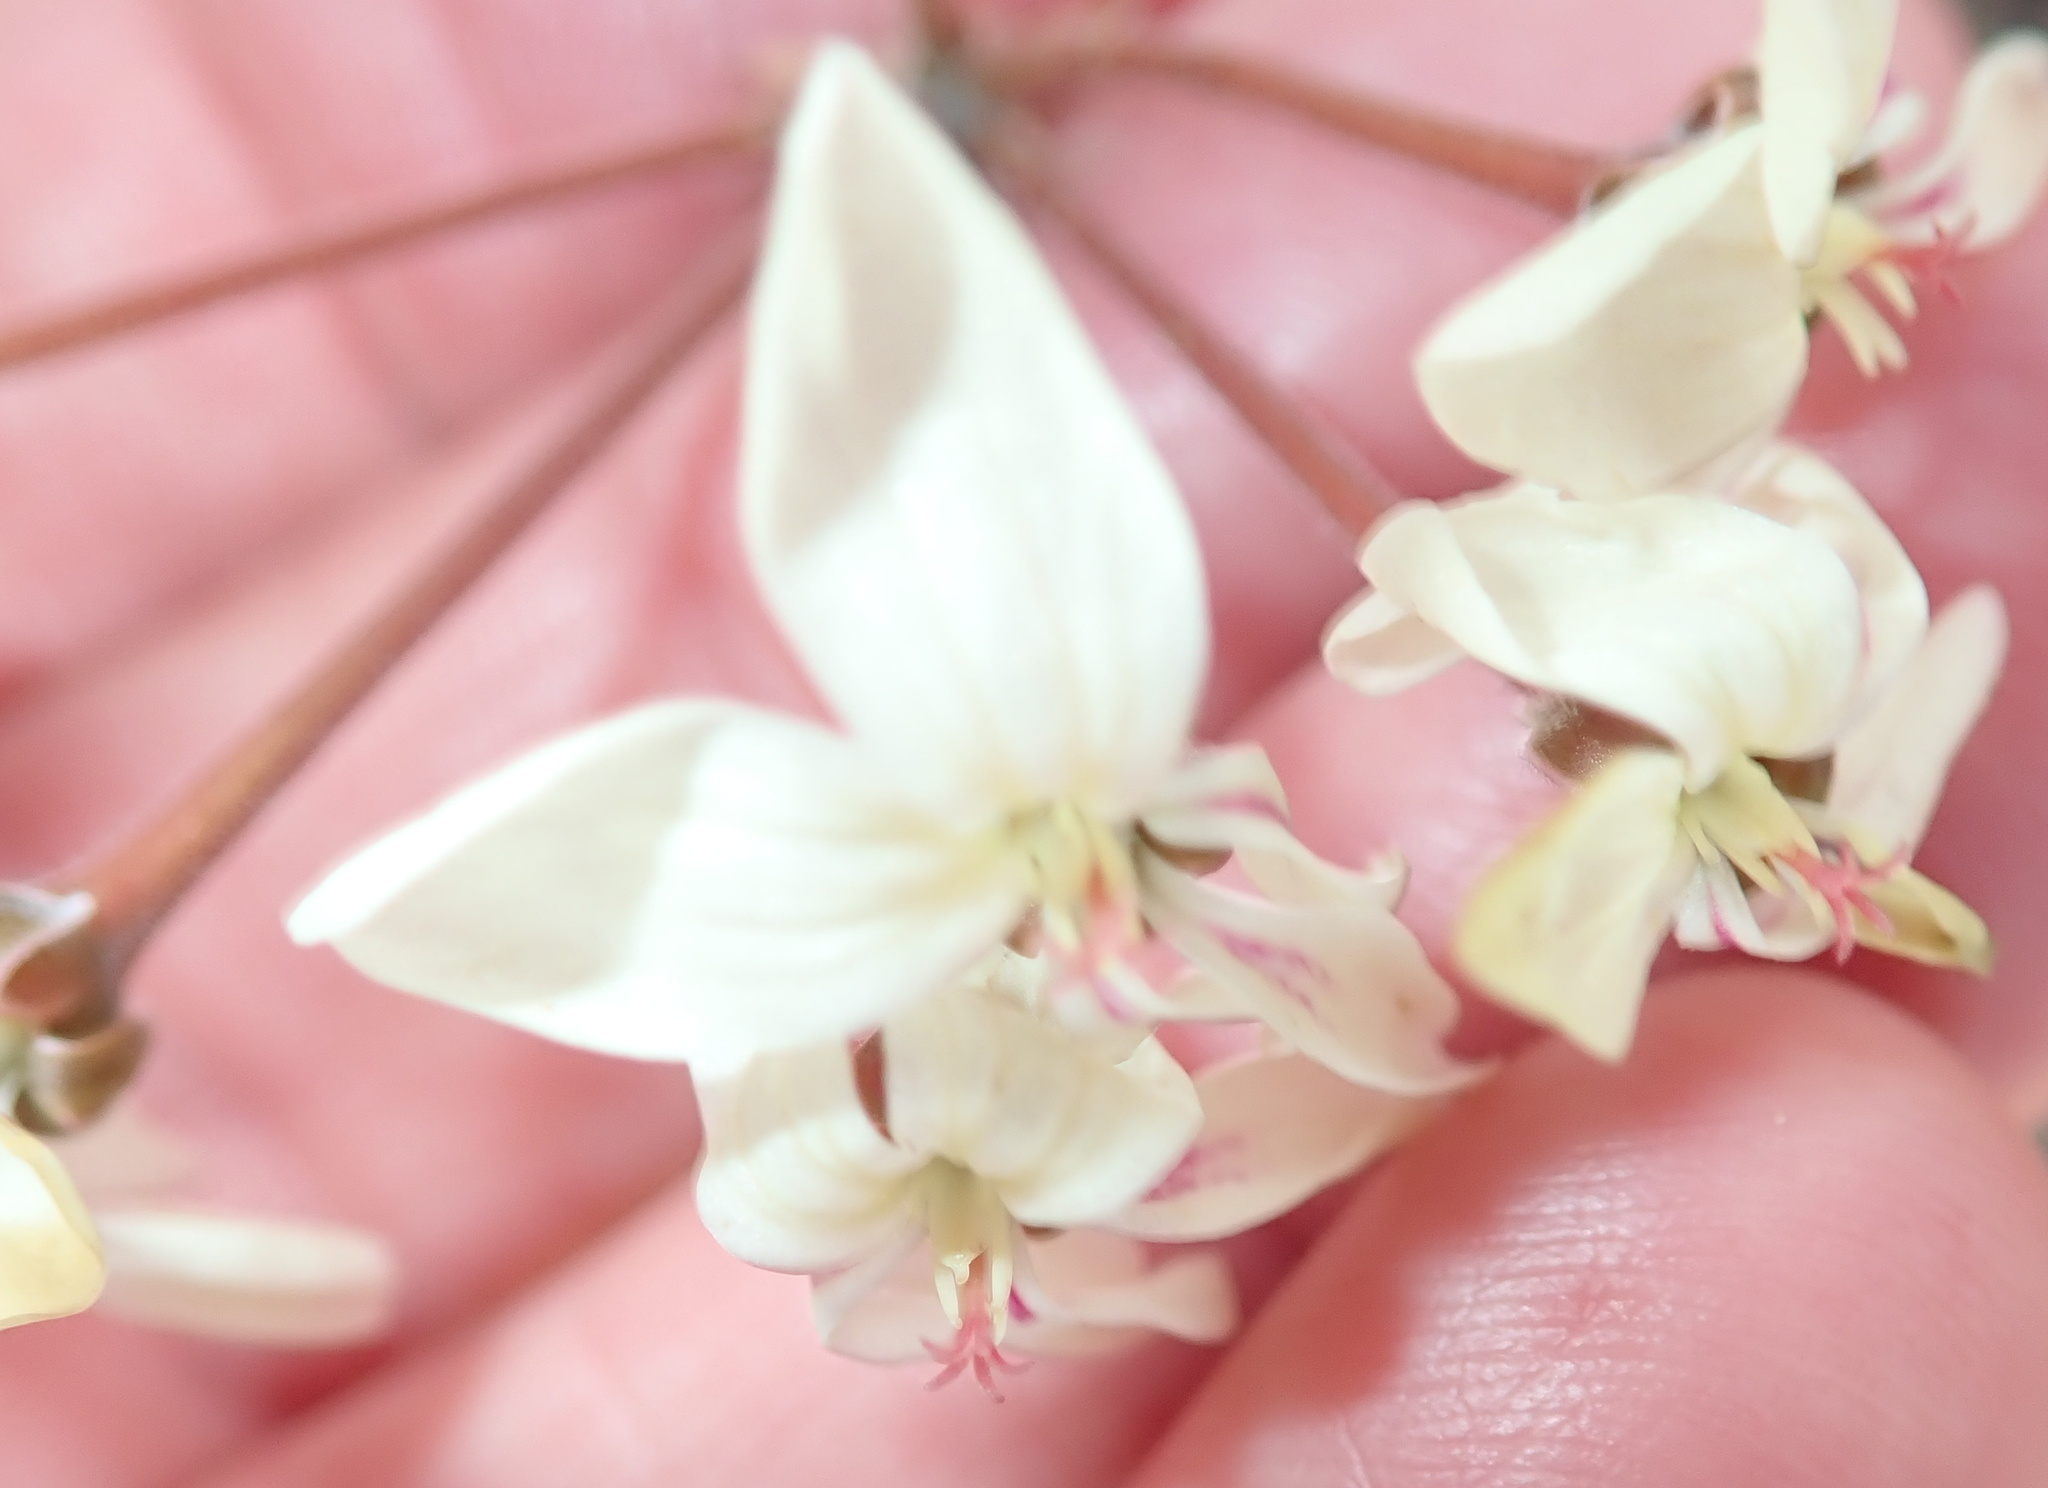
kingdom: Plantae
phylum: Tracheophyta
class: Magnoliopsida
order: Geraniales
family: Geraniaceae
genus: Pelargonium
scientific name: Pelargonium triste
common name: Night-scent pelargonium
